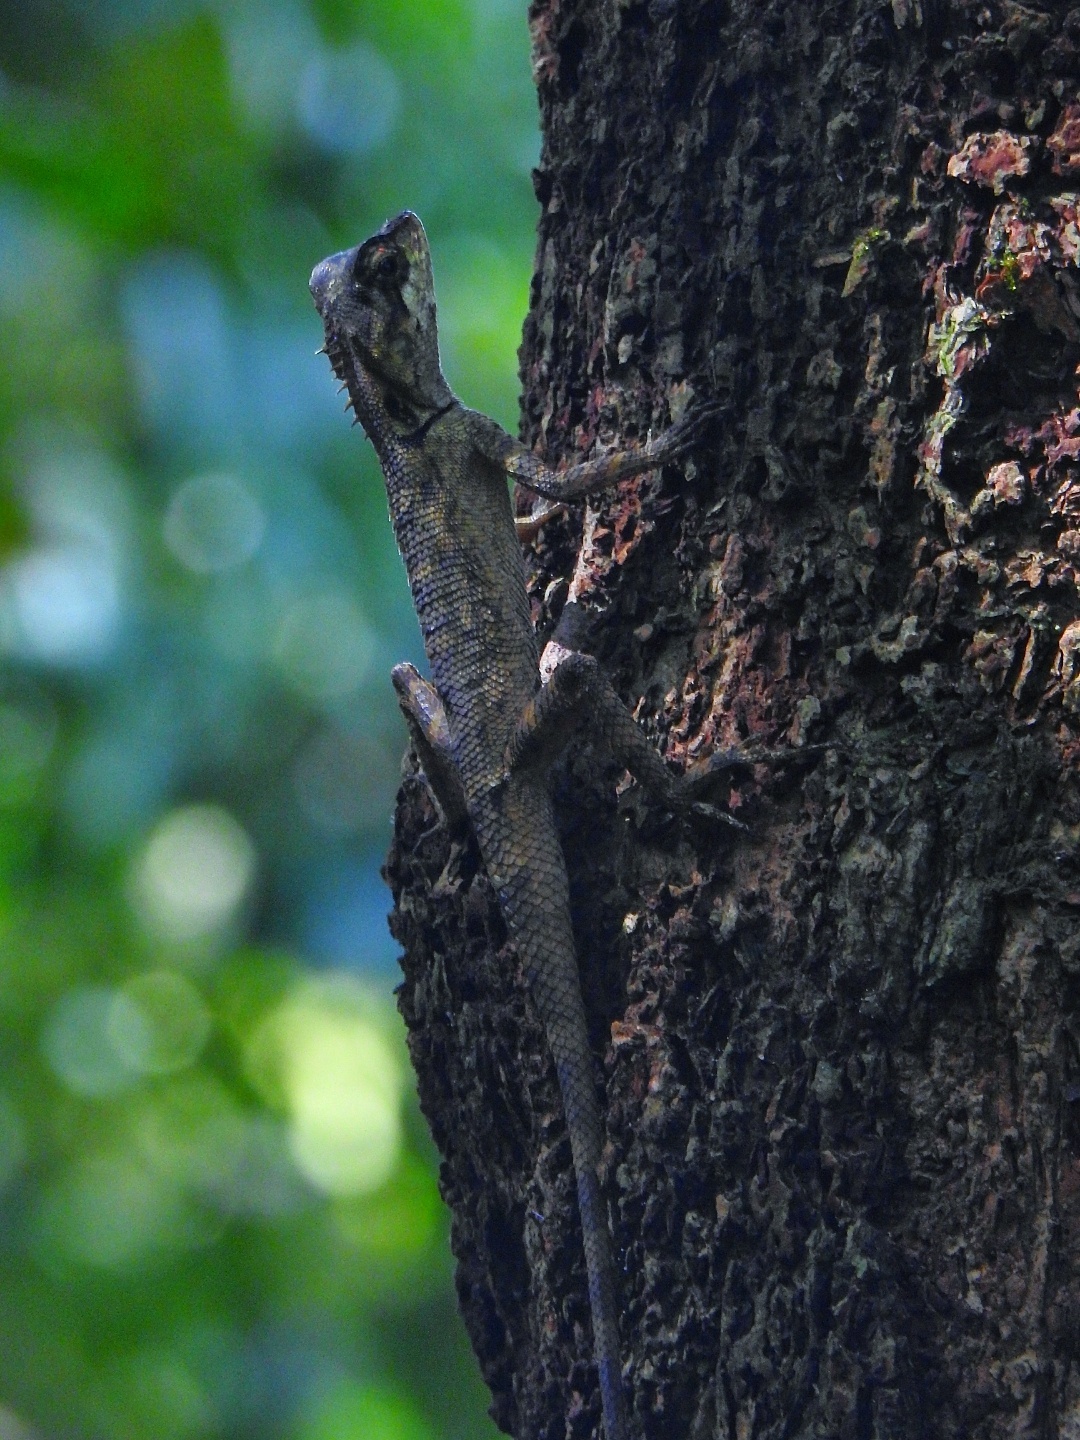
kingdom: Animalia
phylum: Chordata
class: Squamata
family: Agamidae
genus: Monilesaurus
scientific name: Monilesaurus rouxii
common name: Roux's forest lizard
